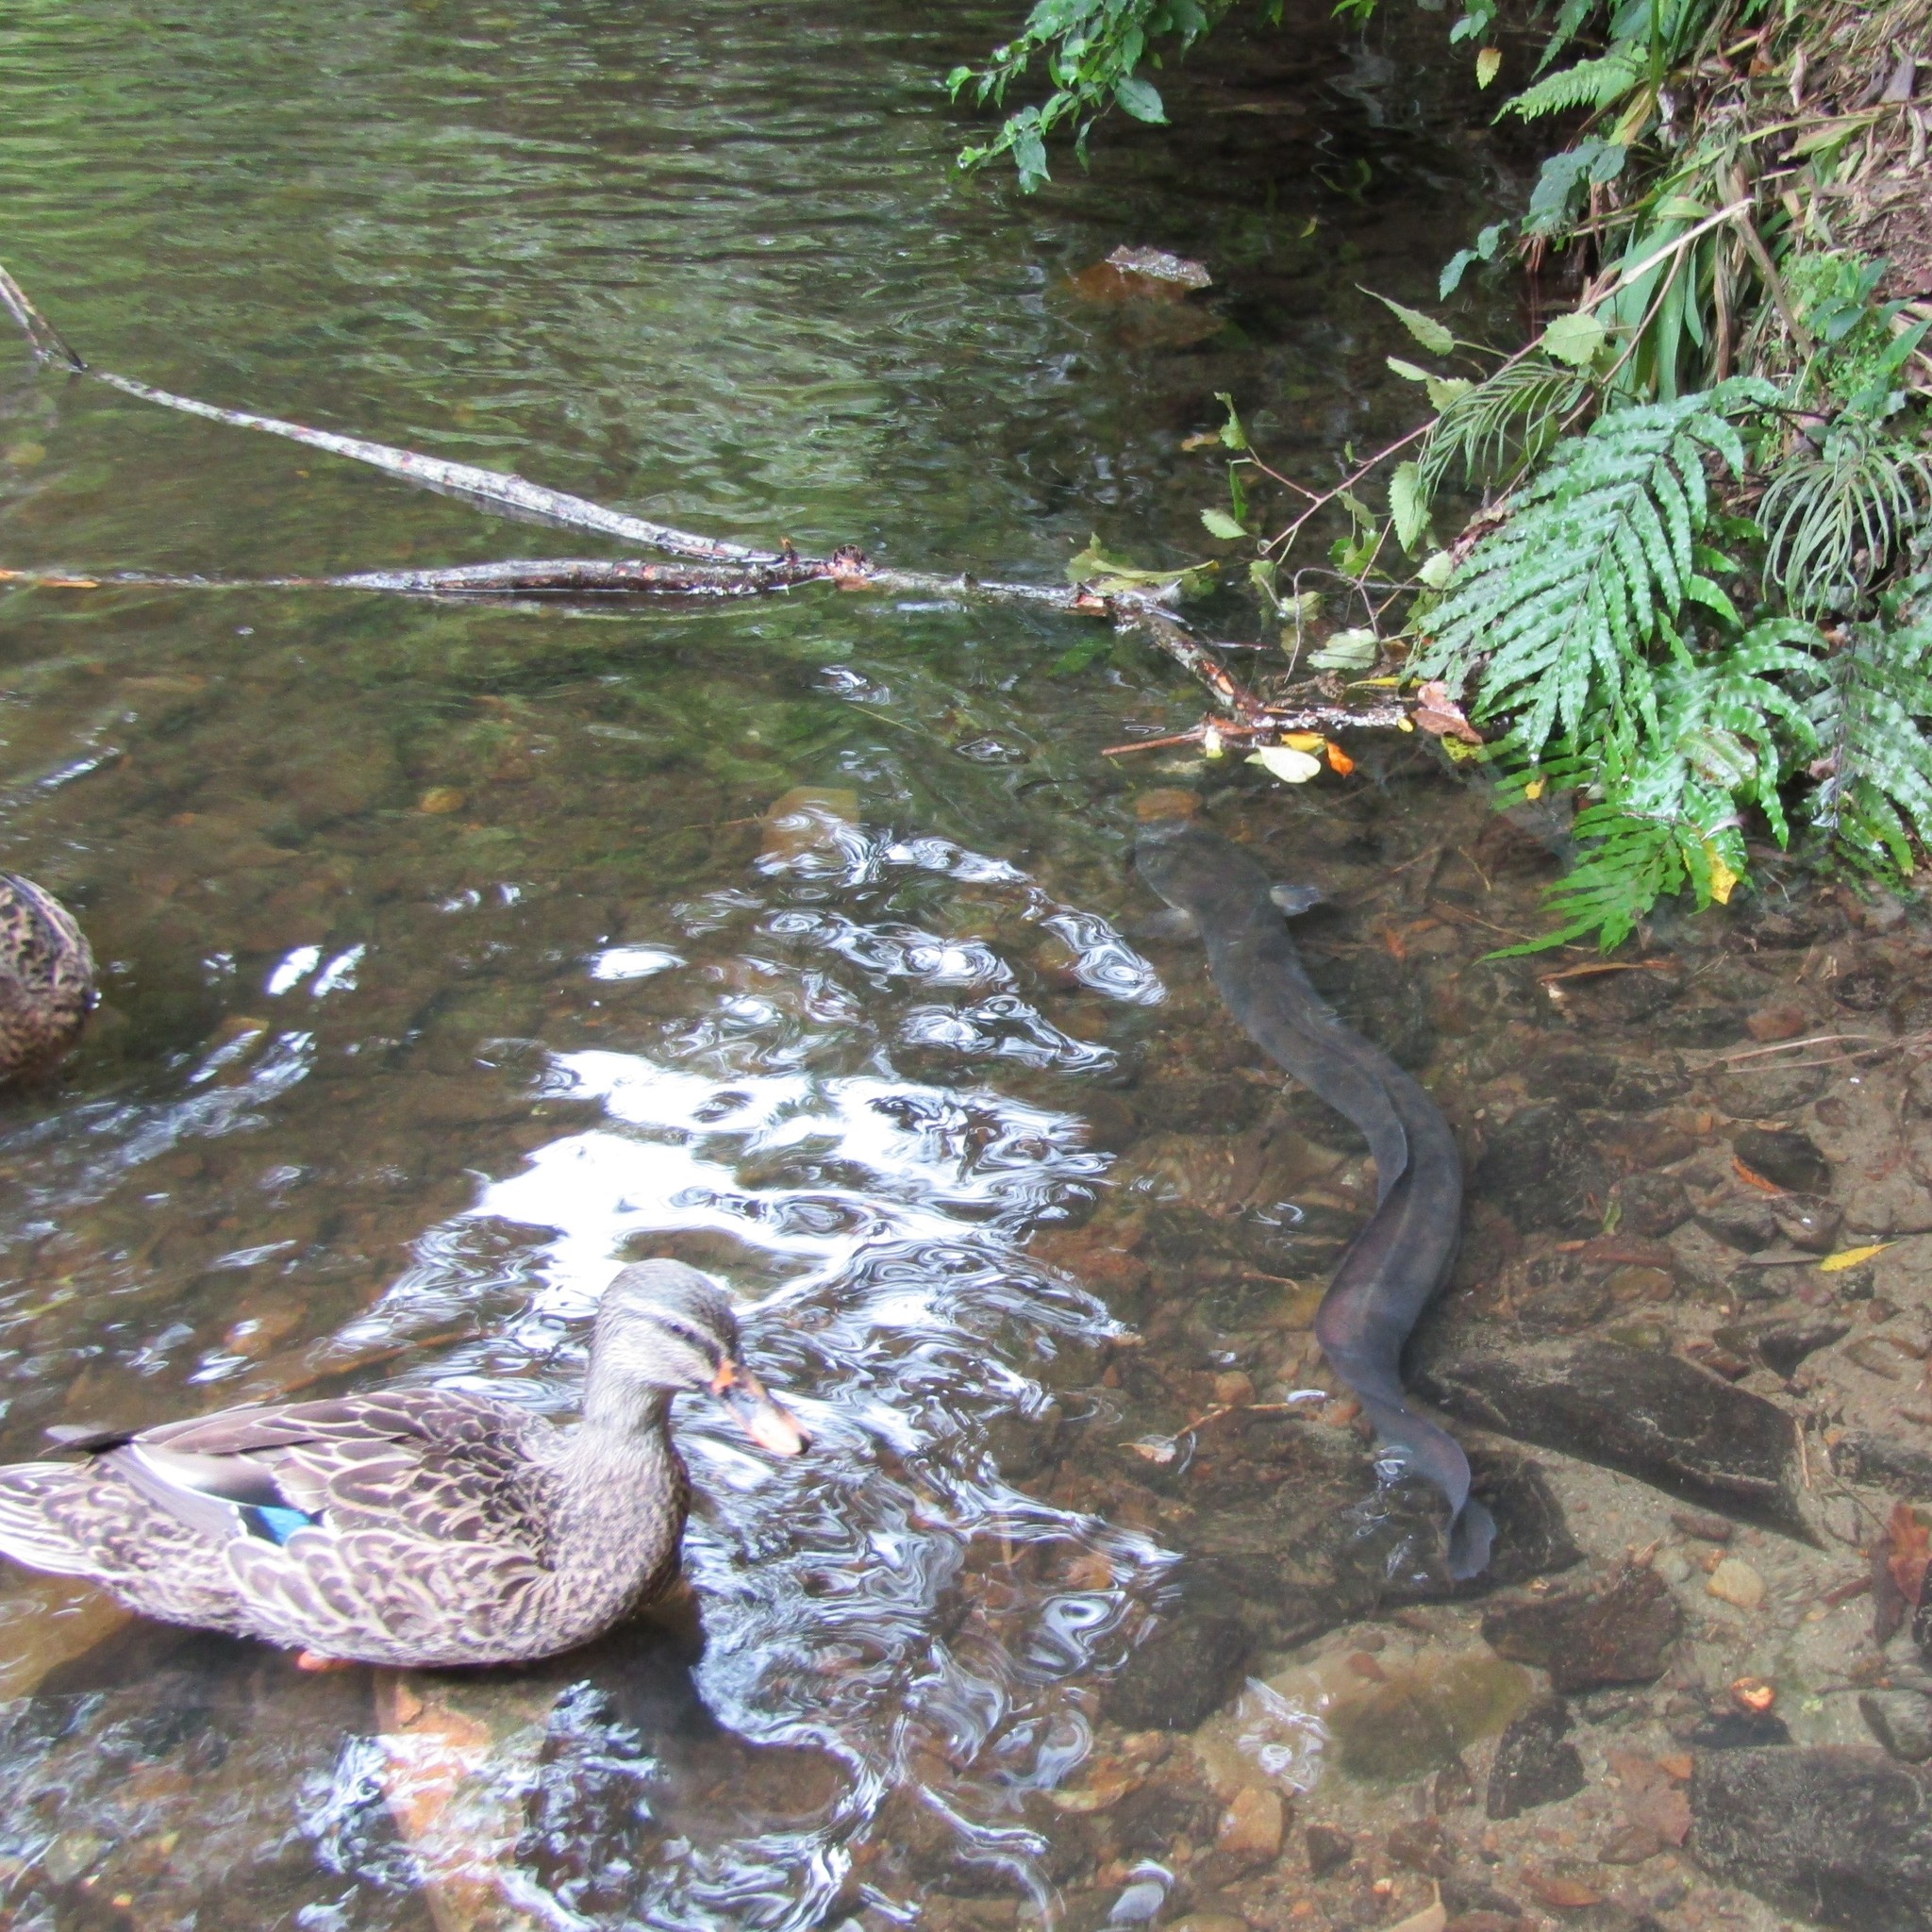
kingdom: Animalia
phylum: Chordata
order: Anguilliformes
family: Anguillidae
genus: Anguilla
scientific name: Anguilla dieffenbachii
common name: New zealand longfin eel
